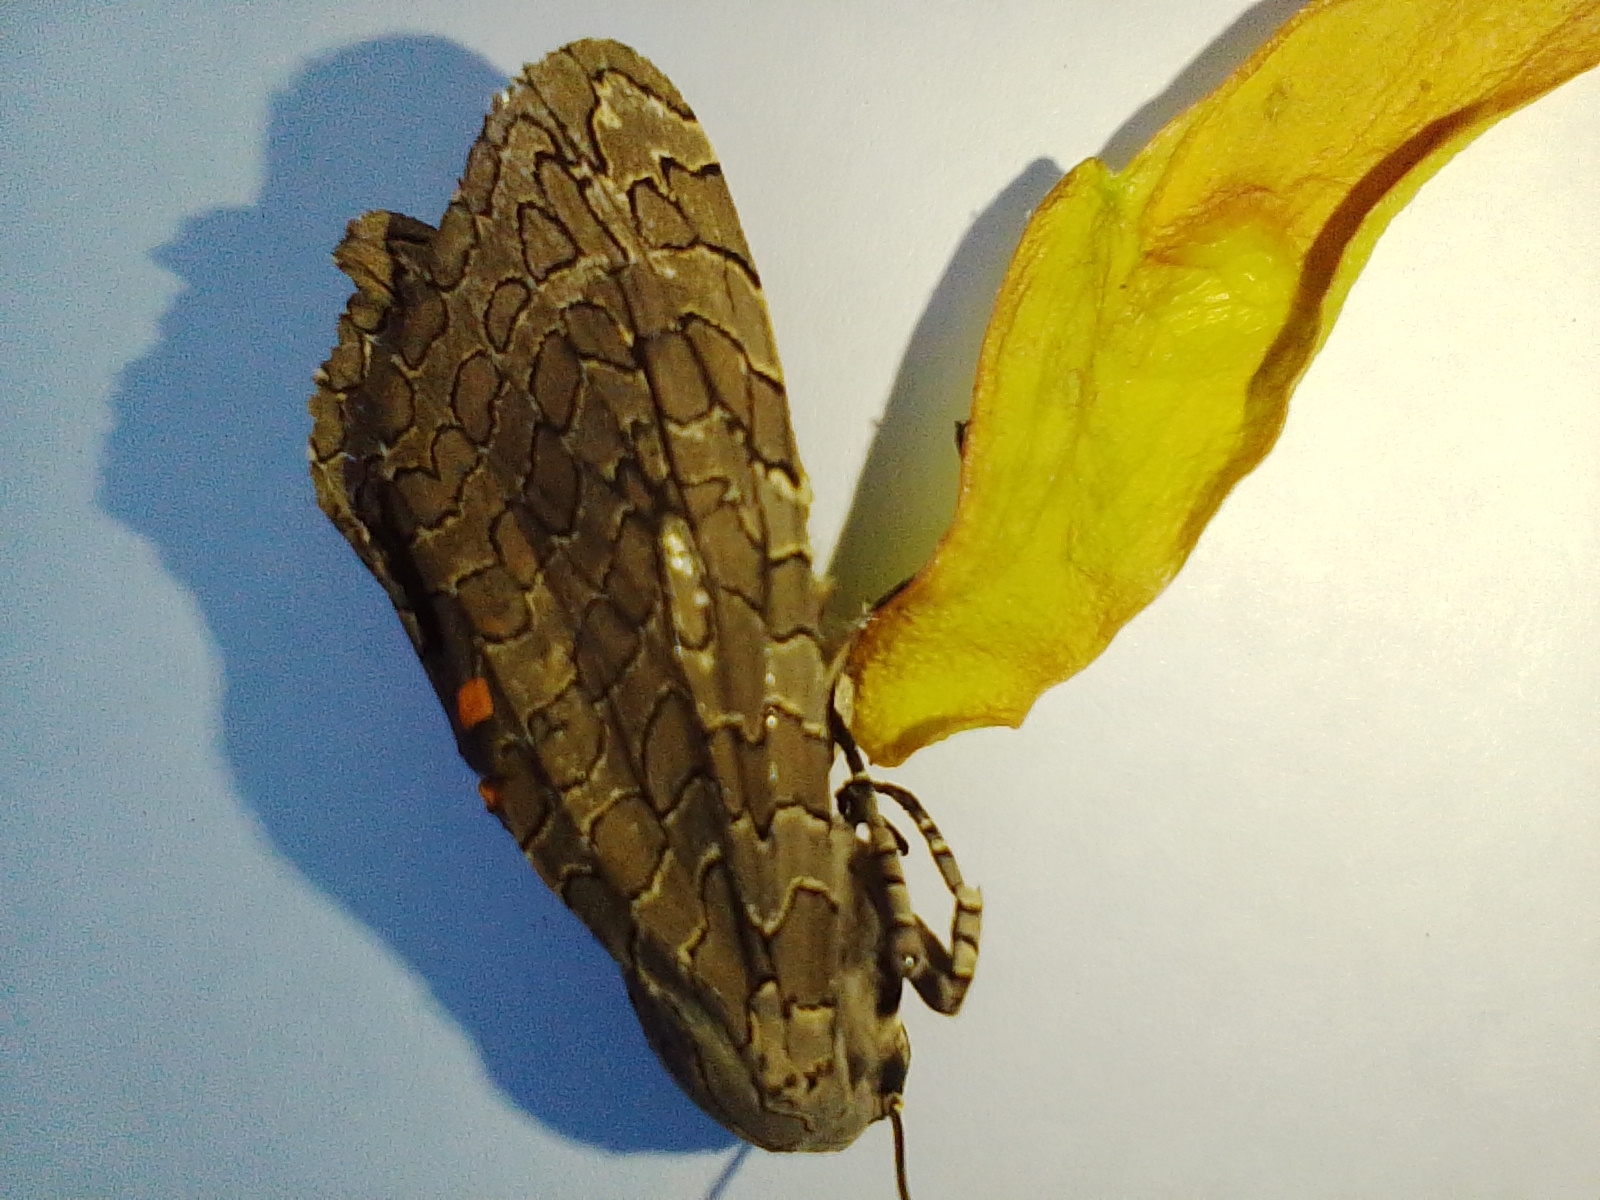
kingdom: Animalia
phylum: Arthropoda
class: Insecta
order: Lepidoptera
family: Erebidae
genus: Hypercompe
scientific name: Hypercompe indecisa
